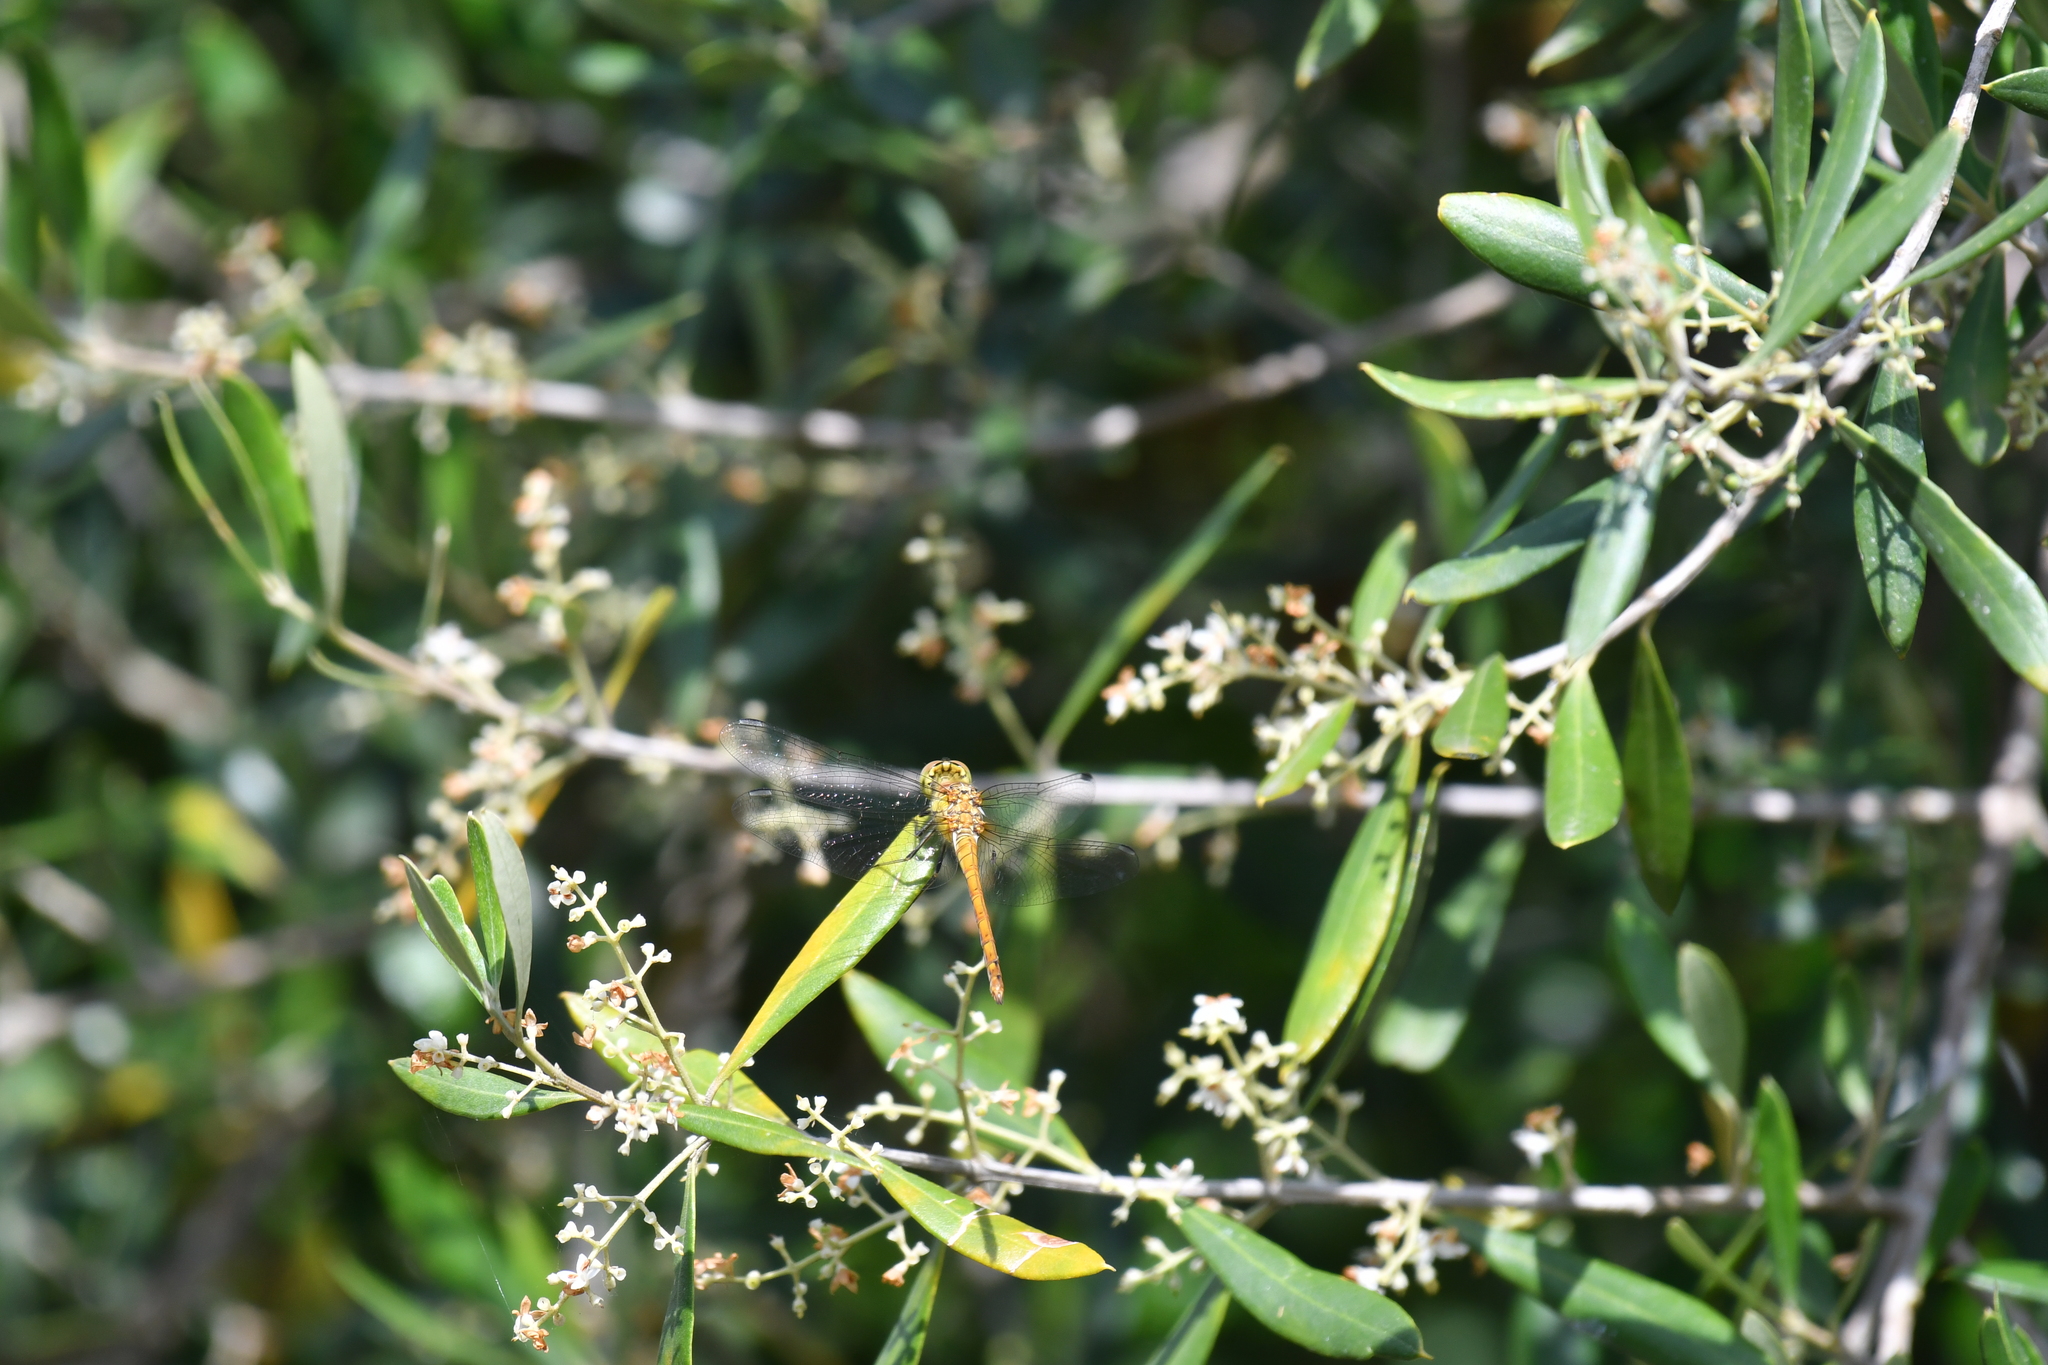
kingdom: Animalia
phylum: Arthropoda
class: Insecta
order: Odonata
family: Libellulidae
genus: Sympetrum
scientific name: Sympetrum striolatum
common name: Common darter
